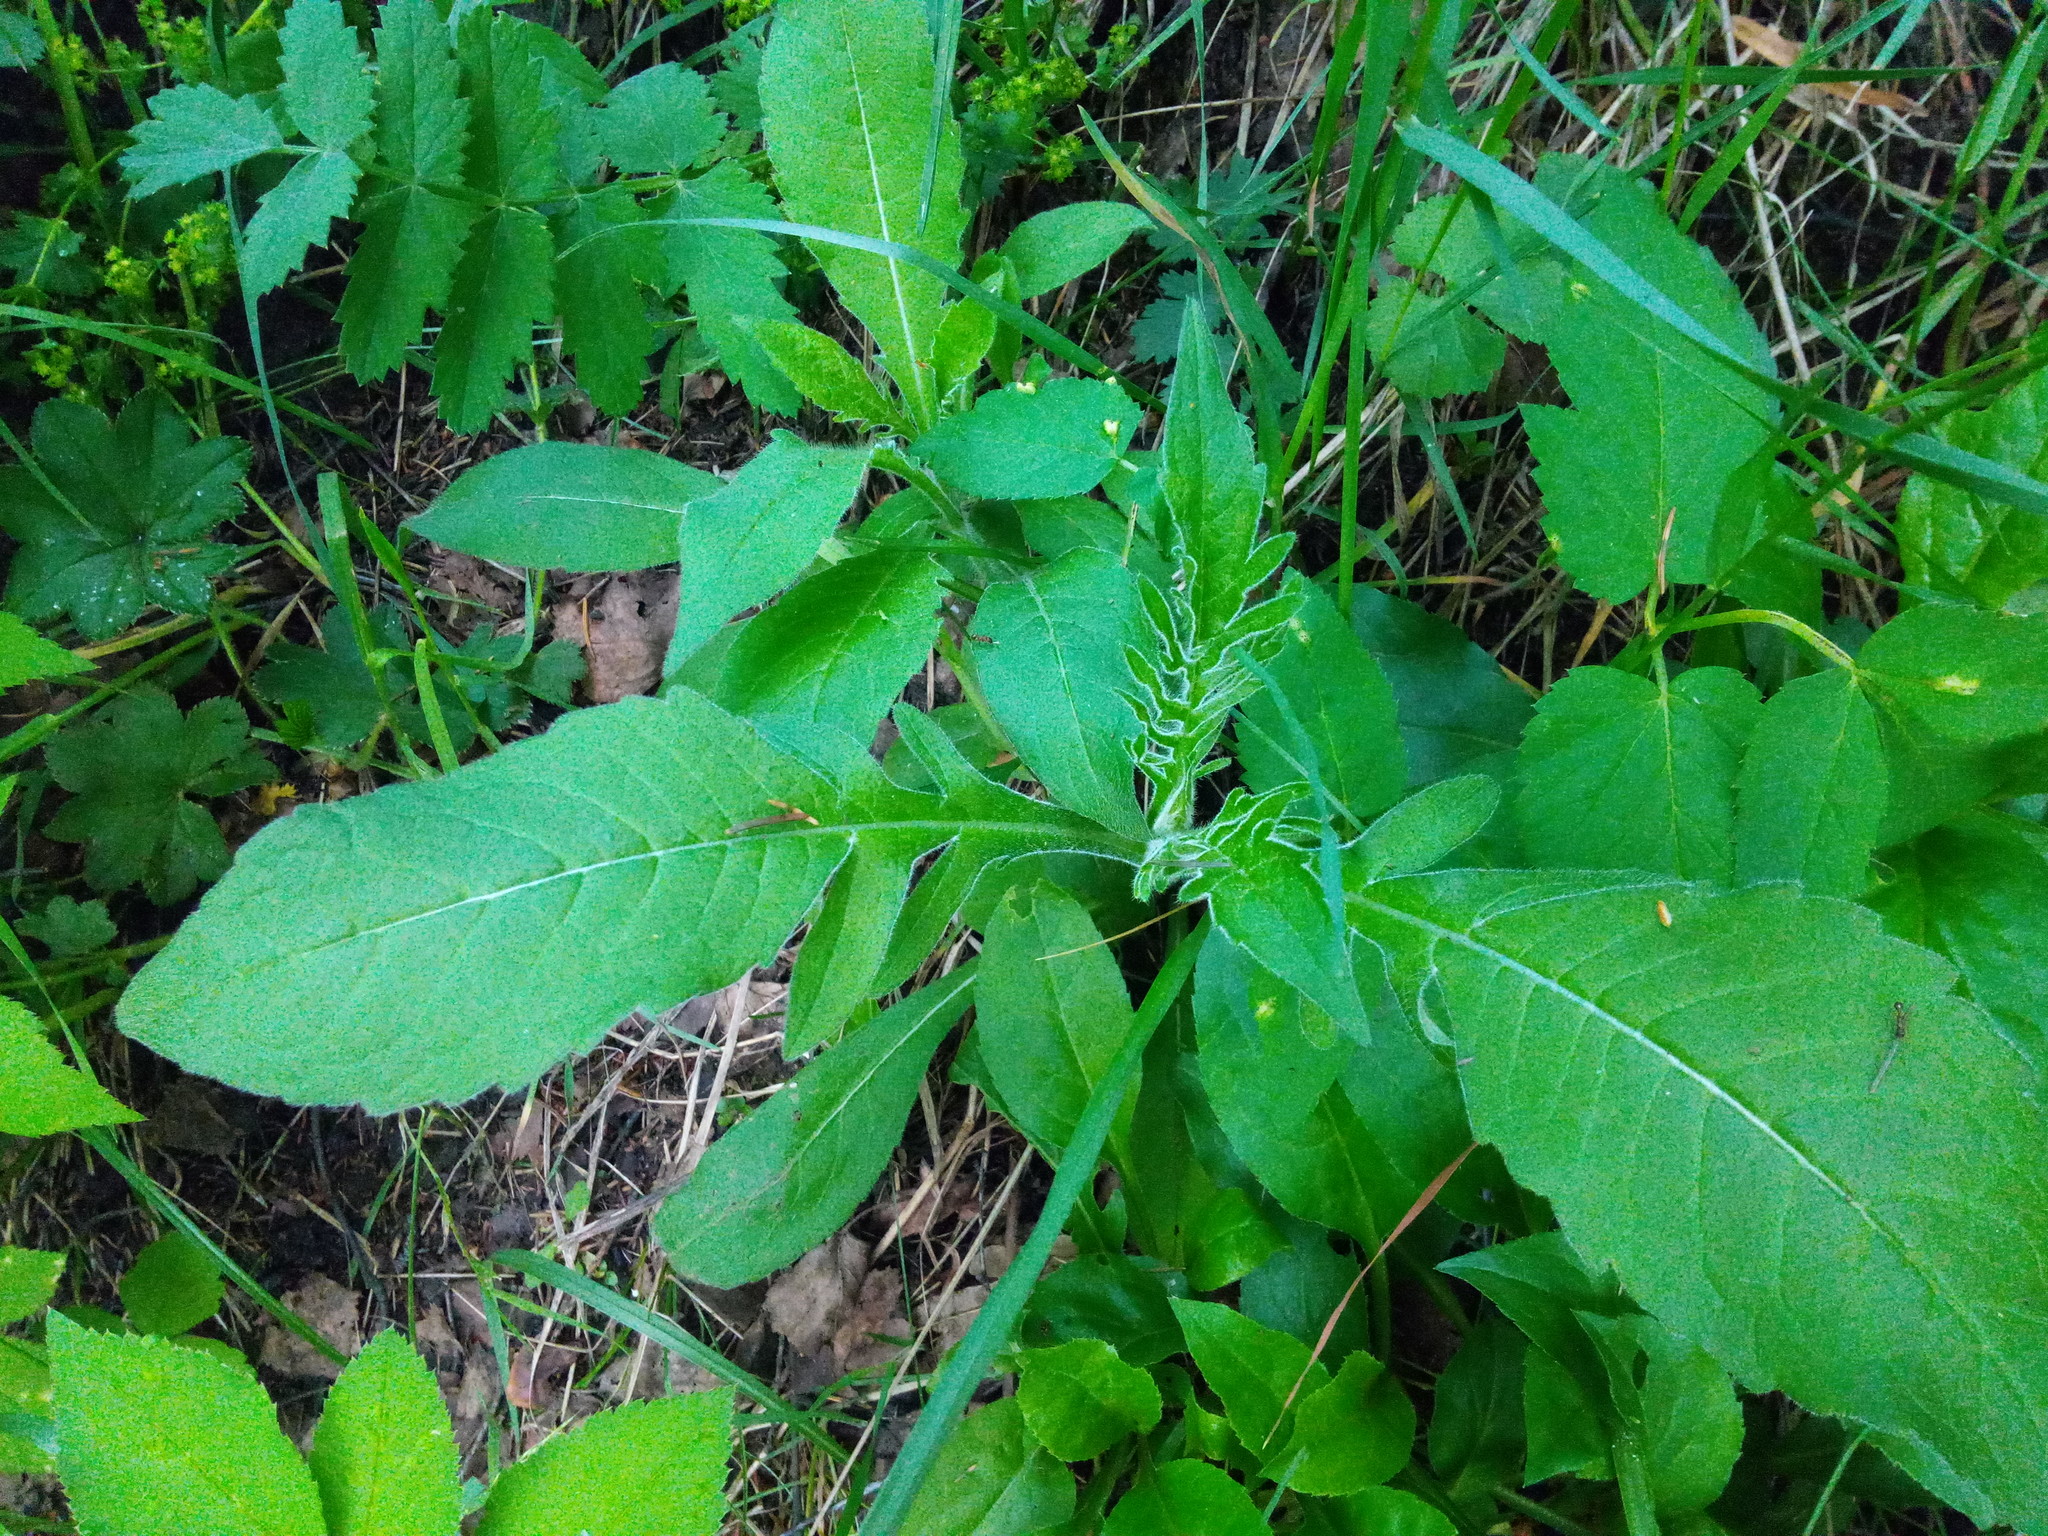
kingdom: Plantae
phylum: Tracheophyta
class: Magnoliopsida
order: Dipsacales
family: Caprifoliaceae
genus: Knautia
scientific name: Knautia arvensis
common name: Field scabiosa
